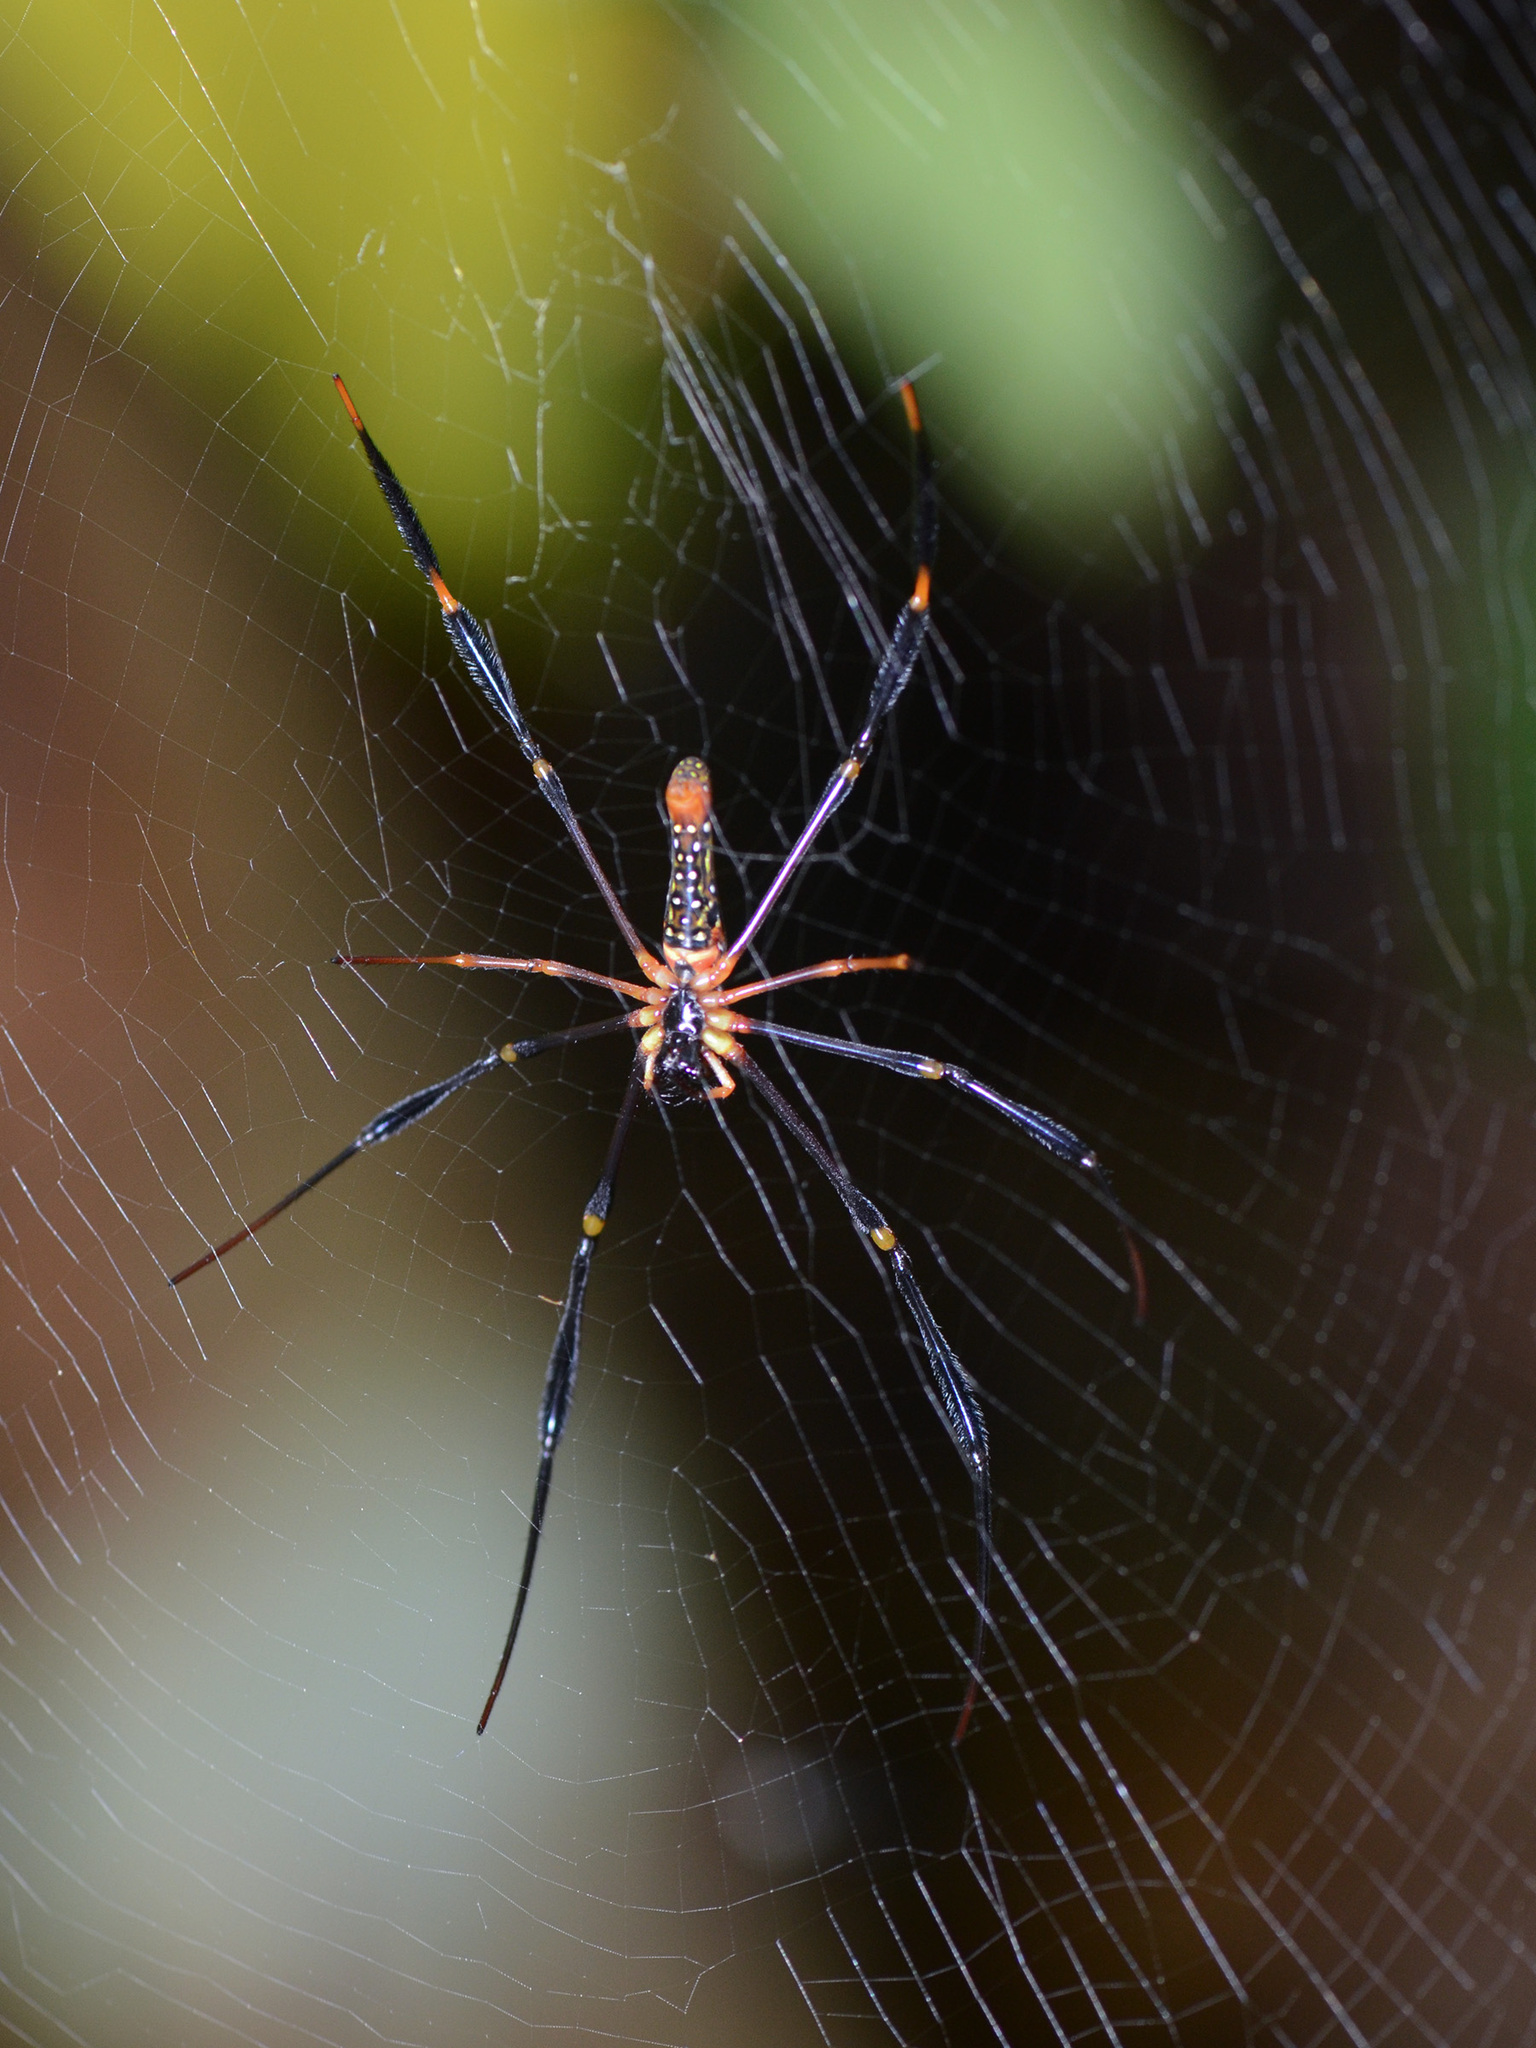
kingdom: Animalia
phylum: Arthropoda
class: Arachnida
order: Araneae
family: Araneidae
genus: Nephila
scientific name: Nephila pilipes
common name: Giant golden orb weaver
